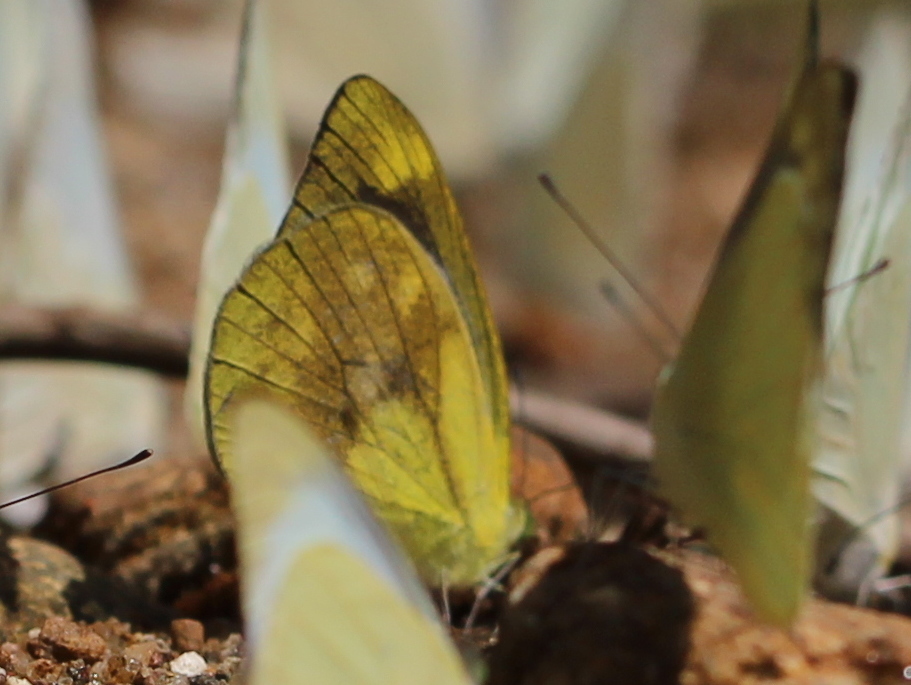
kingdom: Animalia
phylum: Arthropoda
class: Insecta
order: Lepidoptera
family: Pieridae
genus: Cepora
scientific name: Cepora nadina
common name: Lesser gull
